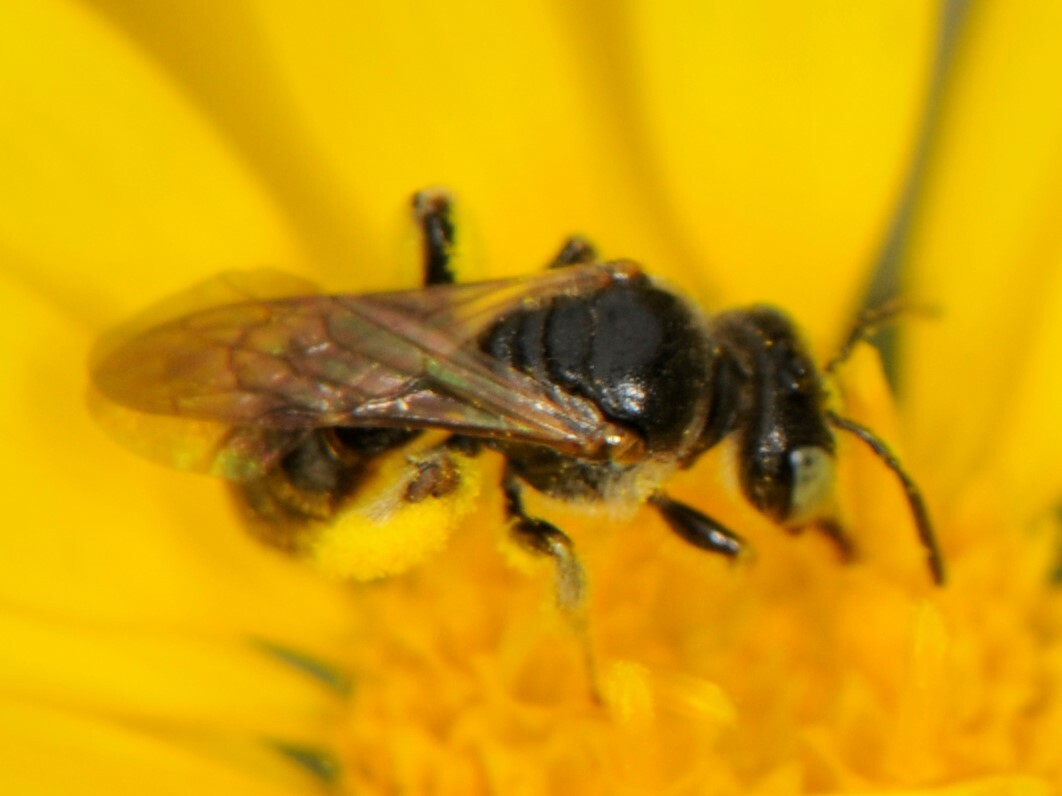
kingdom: Animalia
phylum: Arthropoda
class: Insecta
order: Hymenoptera
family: Andrenidae
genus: Pterosarus
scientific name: Pterosarus
